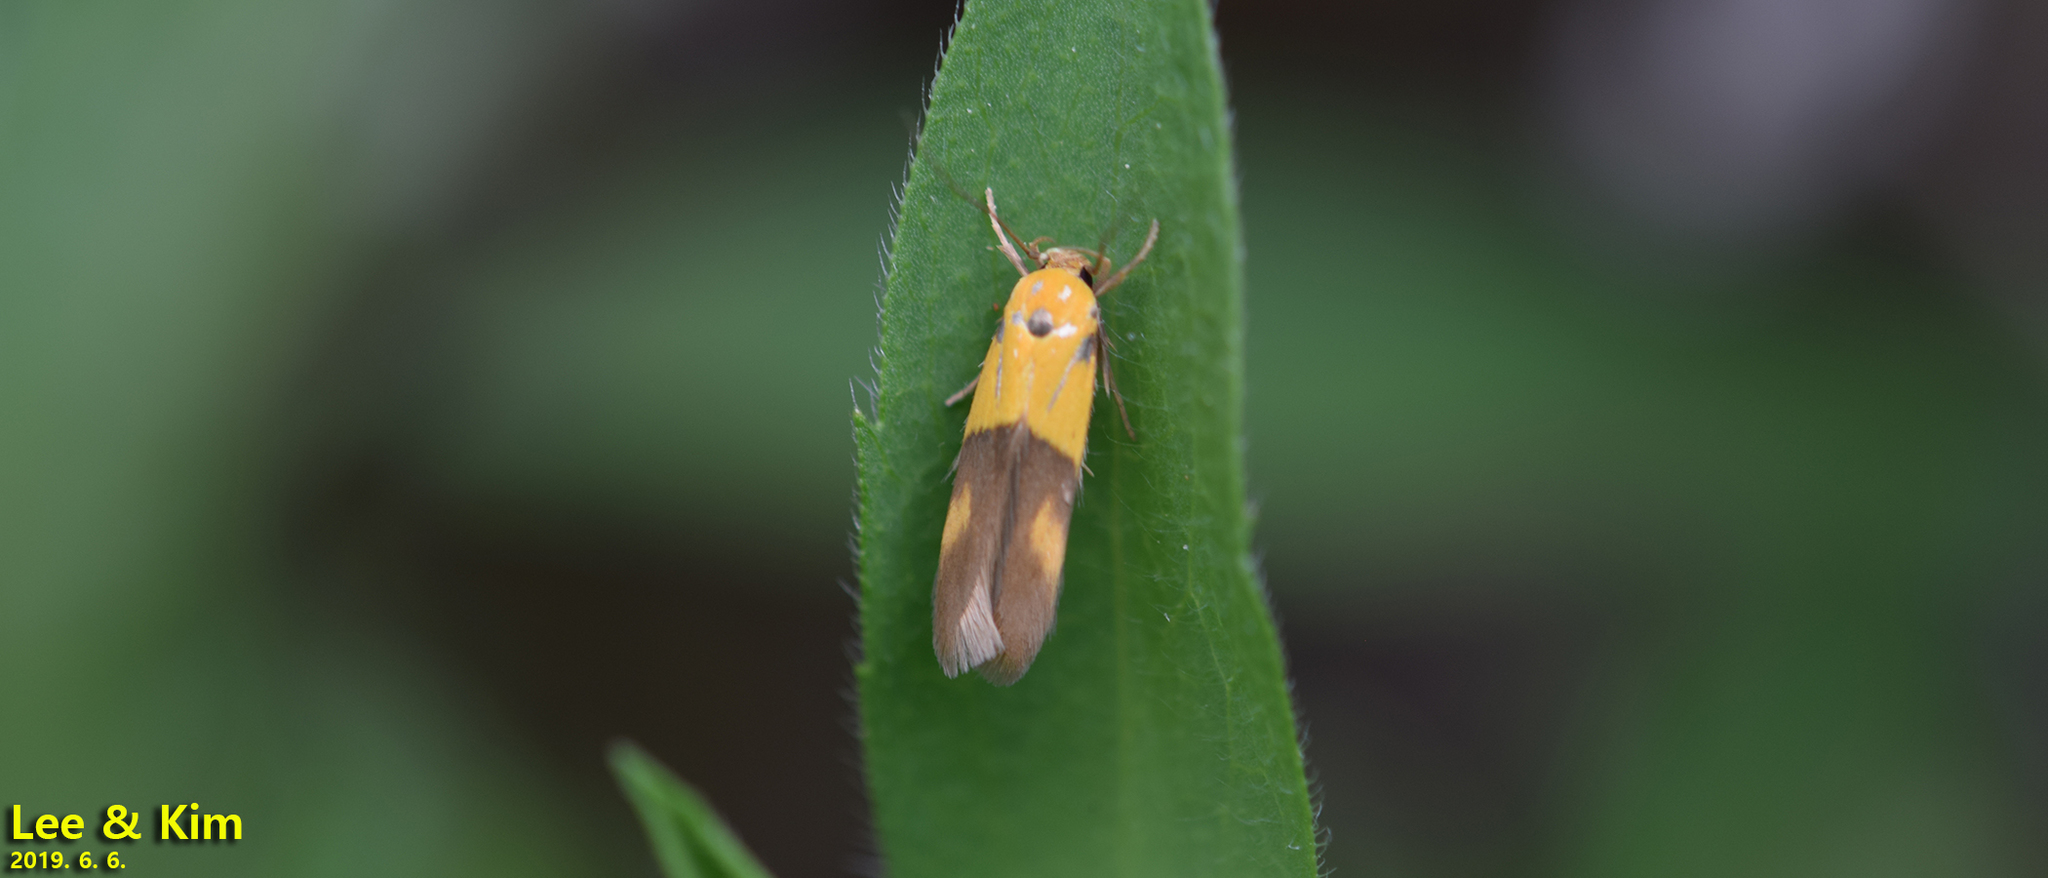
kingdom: Animalia
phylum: Arthropoda
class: Insecta
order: Lepidoptera
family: Stathmopodidae
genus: Stathmopoda
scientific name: Stathmopoda auriferella
